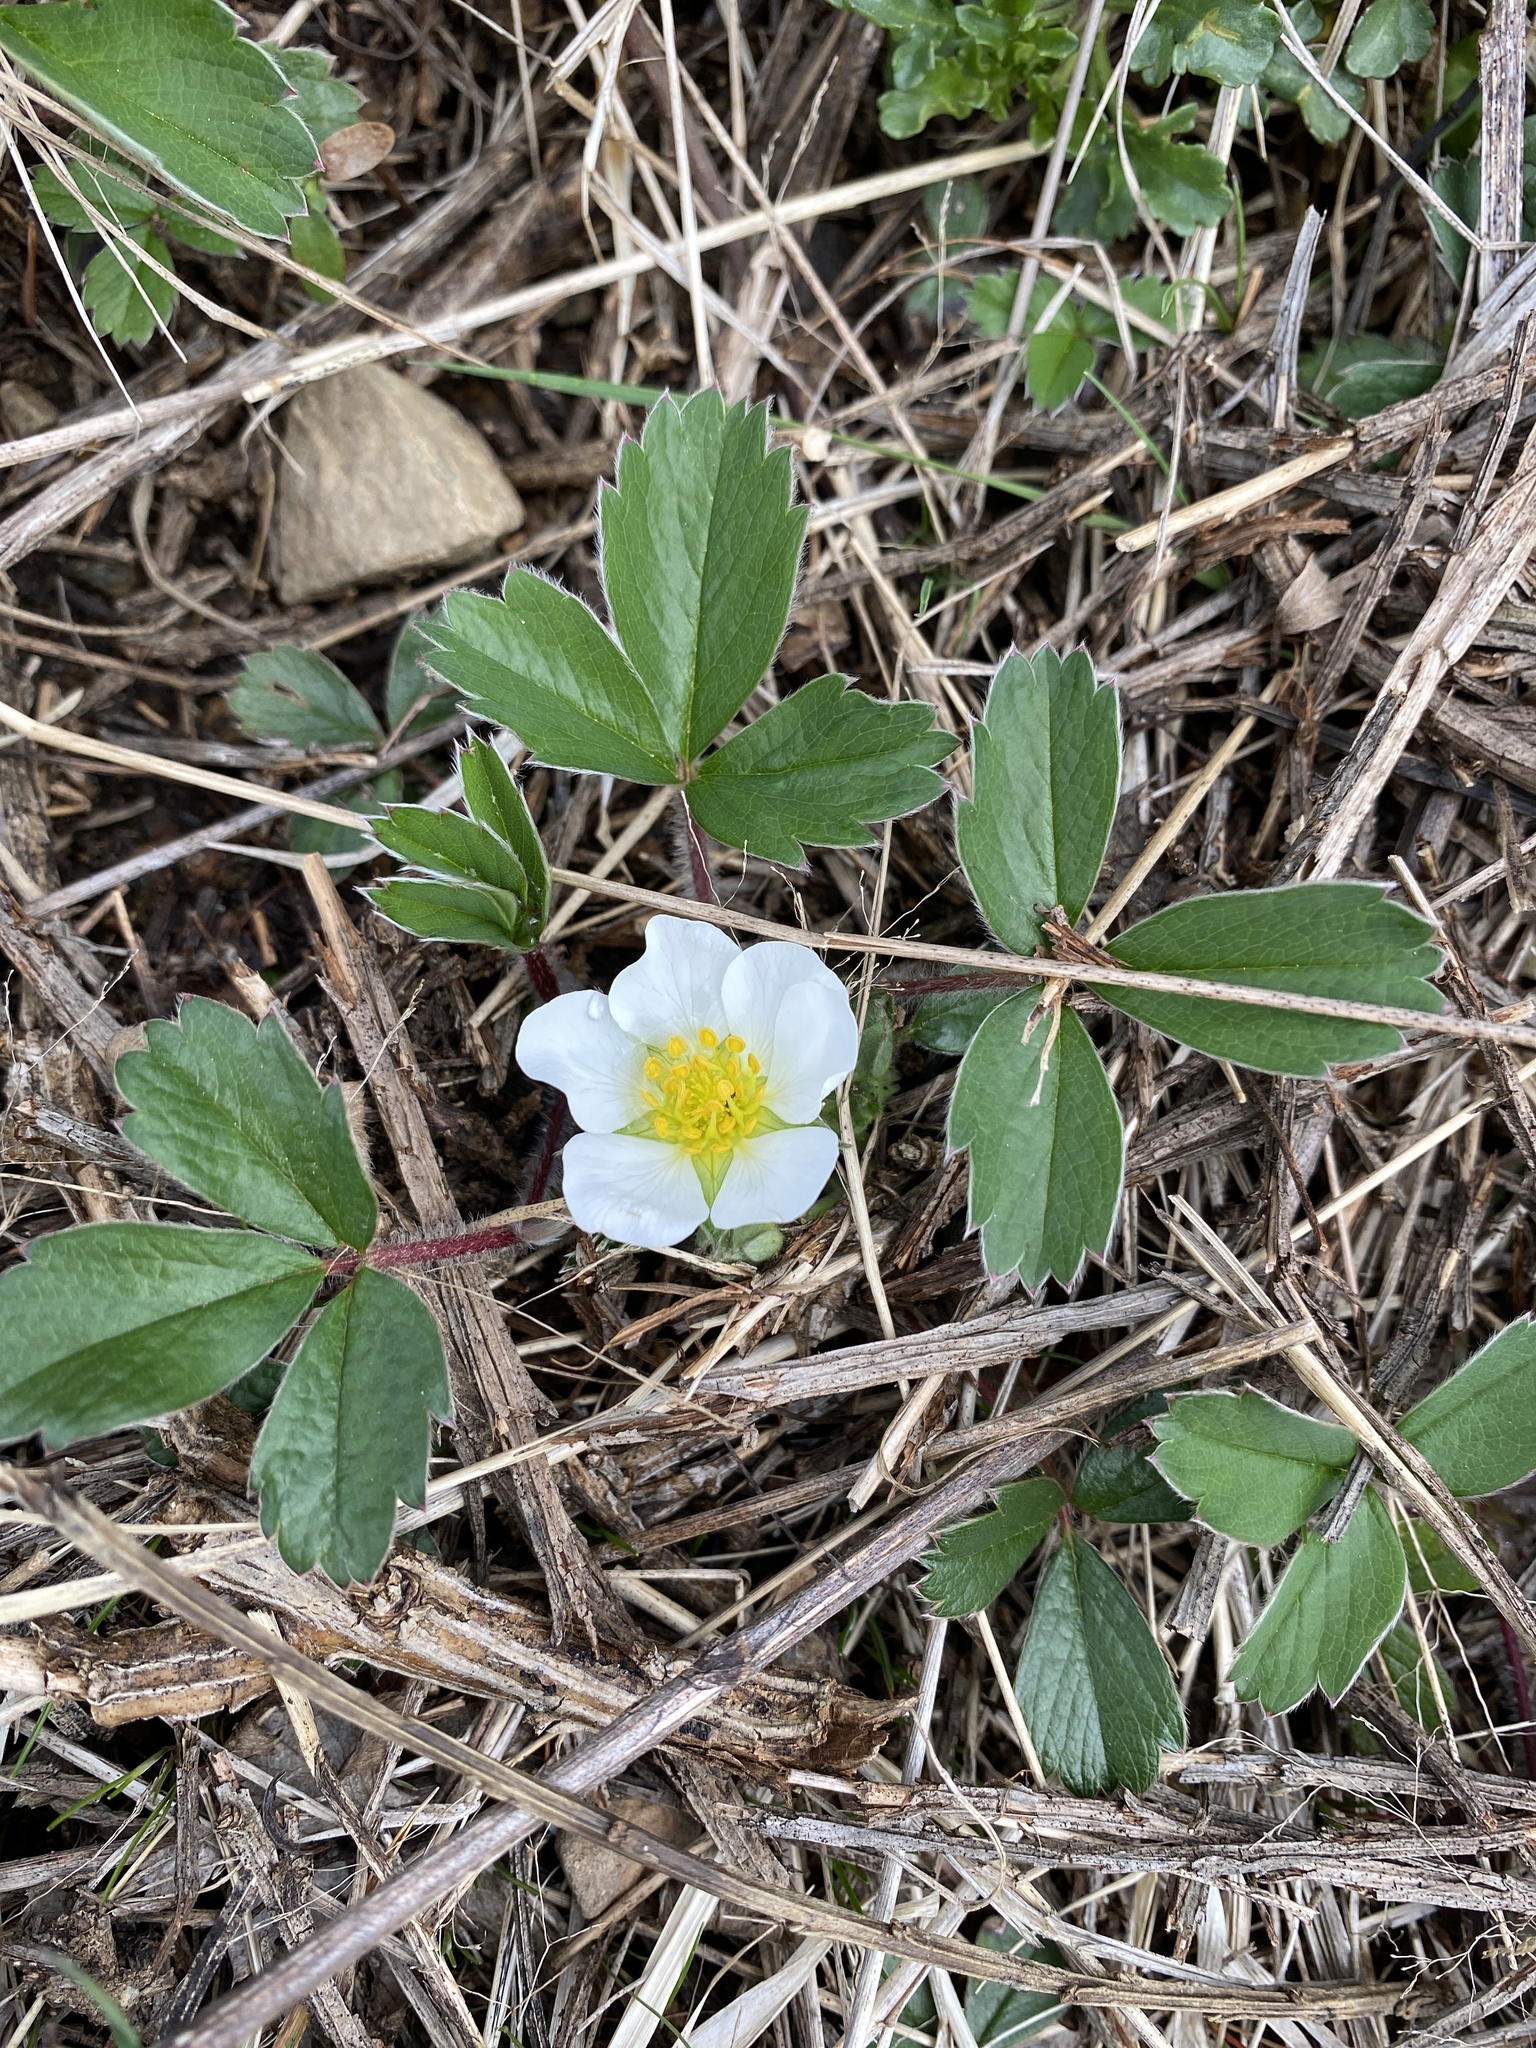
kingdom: Plantae
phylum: Tracheophyta
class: Magnoliopsida
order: Rosales
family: Rosaceae
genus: Fragaria
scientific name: Fragaria virginiana
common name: Thickleaved wild strawberry
